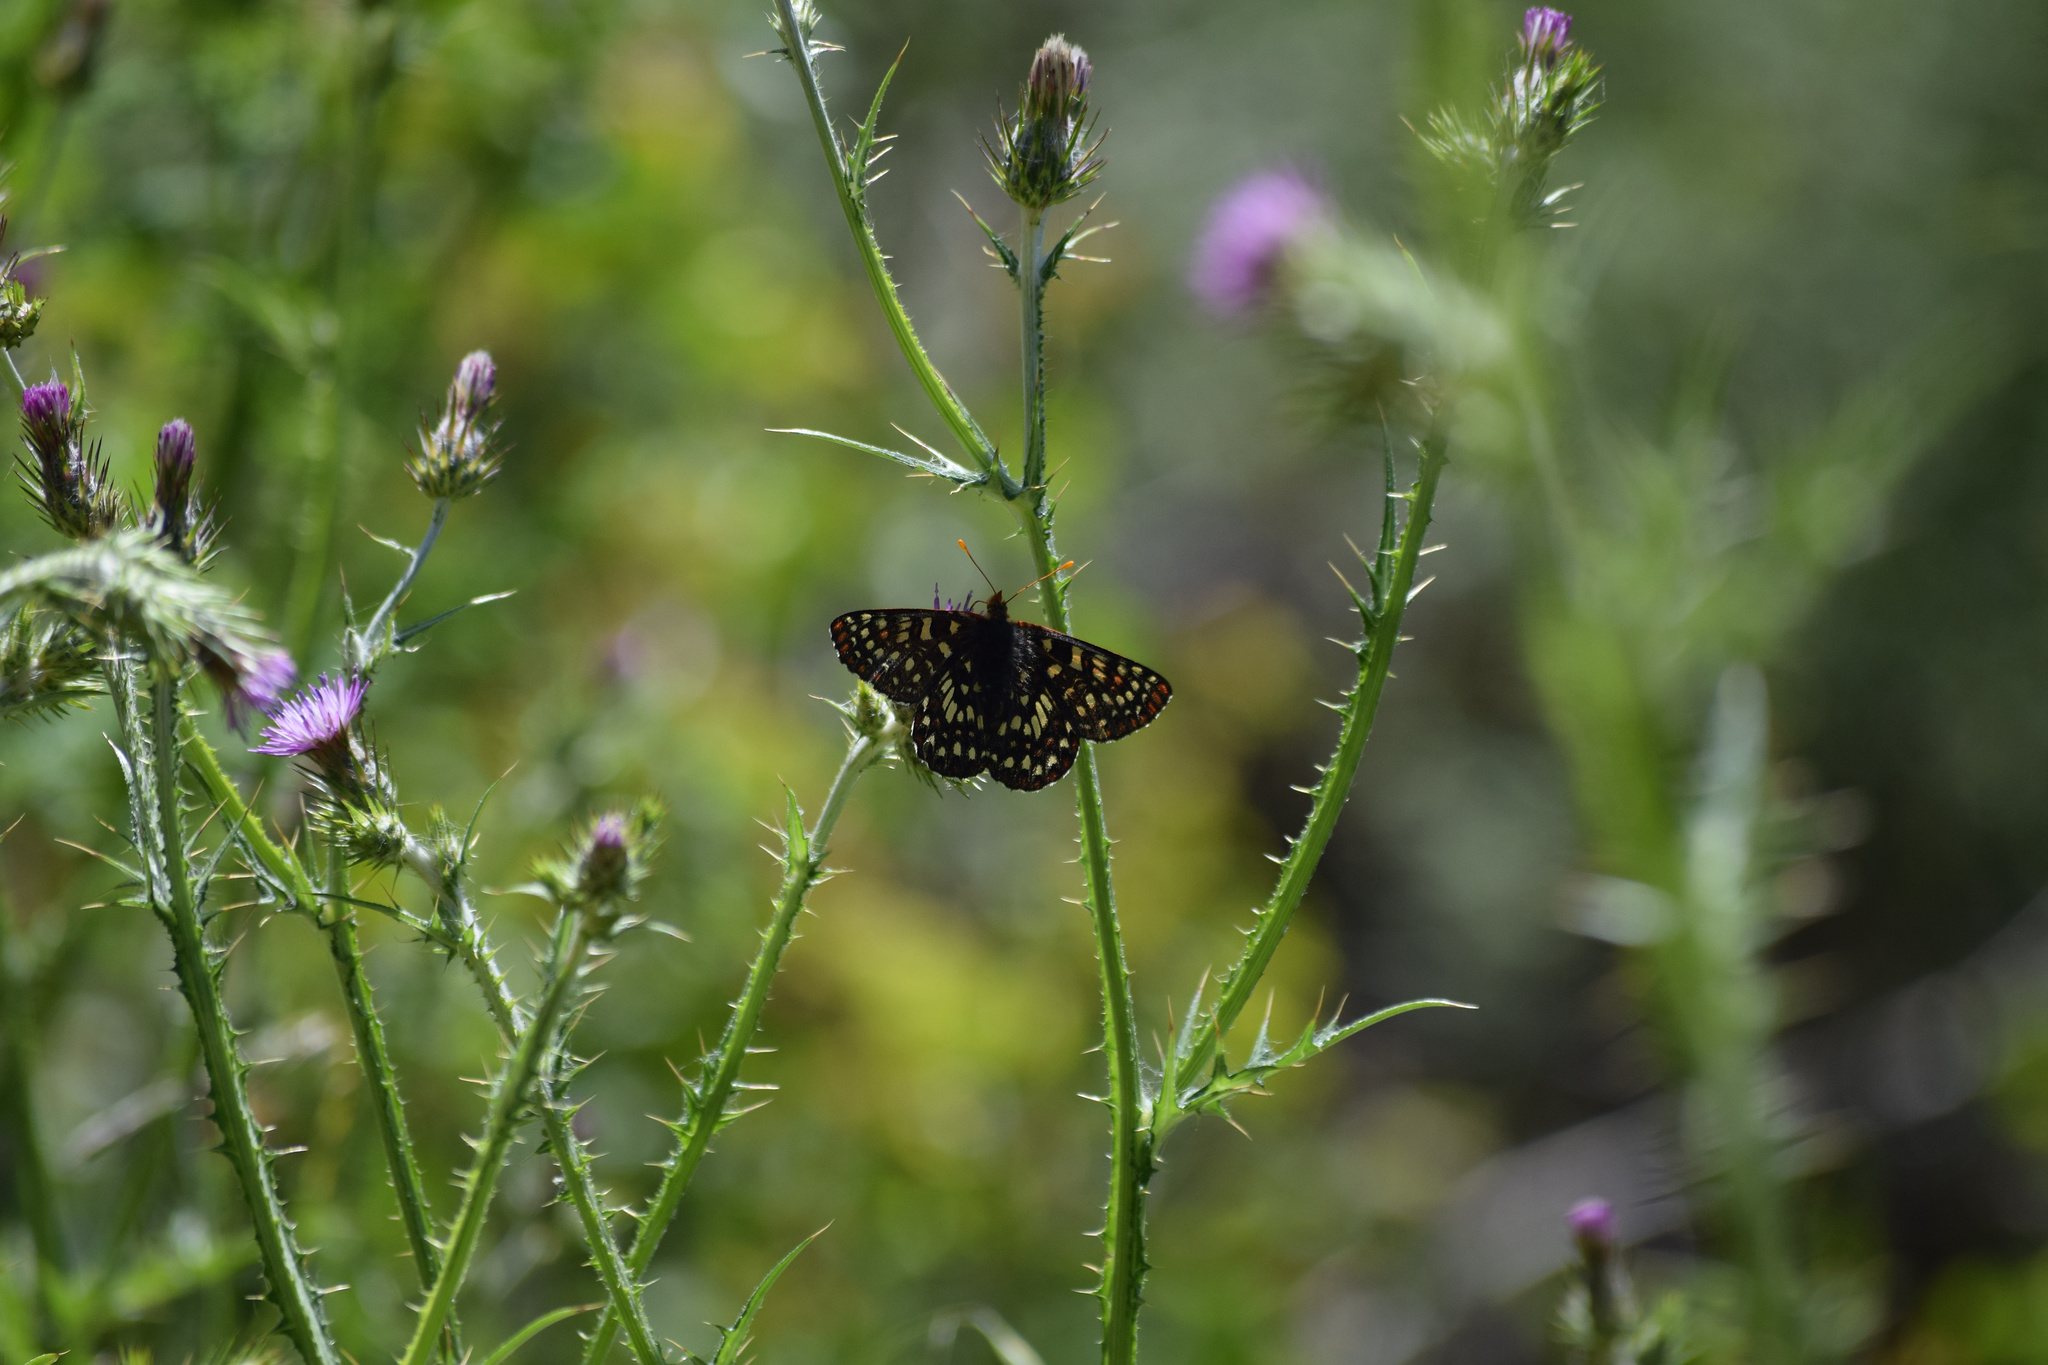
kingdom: Animalia
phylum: Arthropoda
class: Insecta
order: Lepidoptera
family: Nymphalidae
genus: Occidryas
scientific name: Occidryas chalcedona
